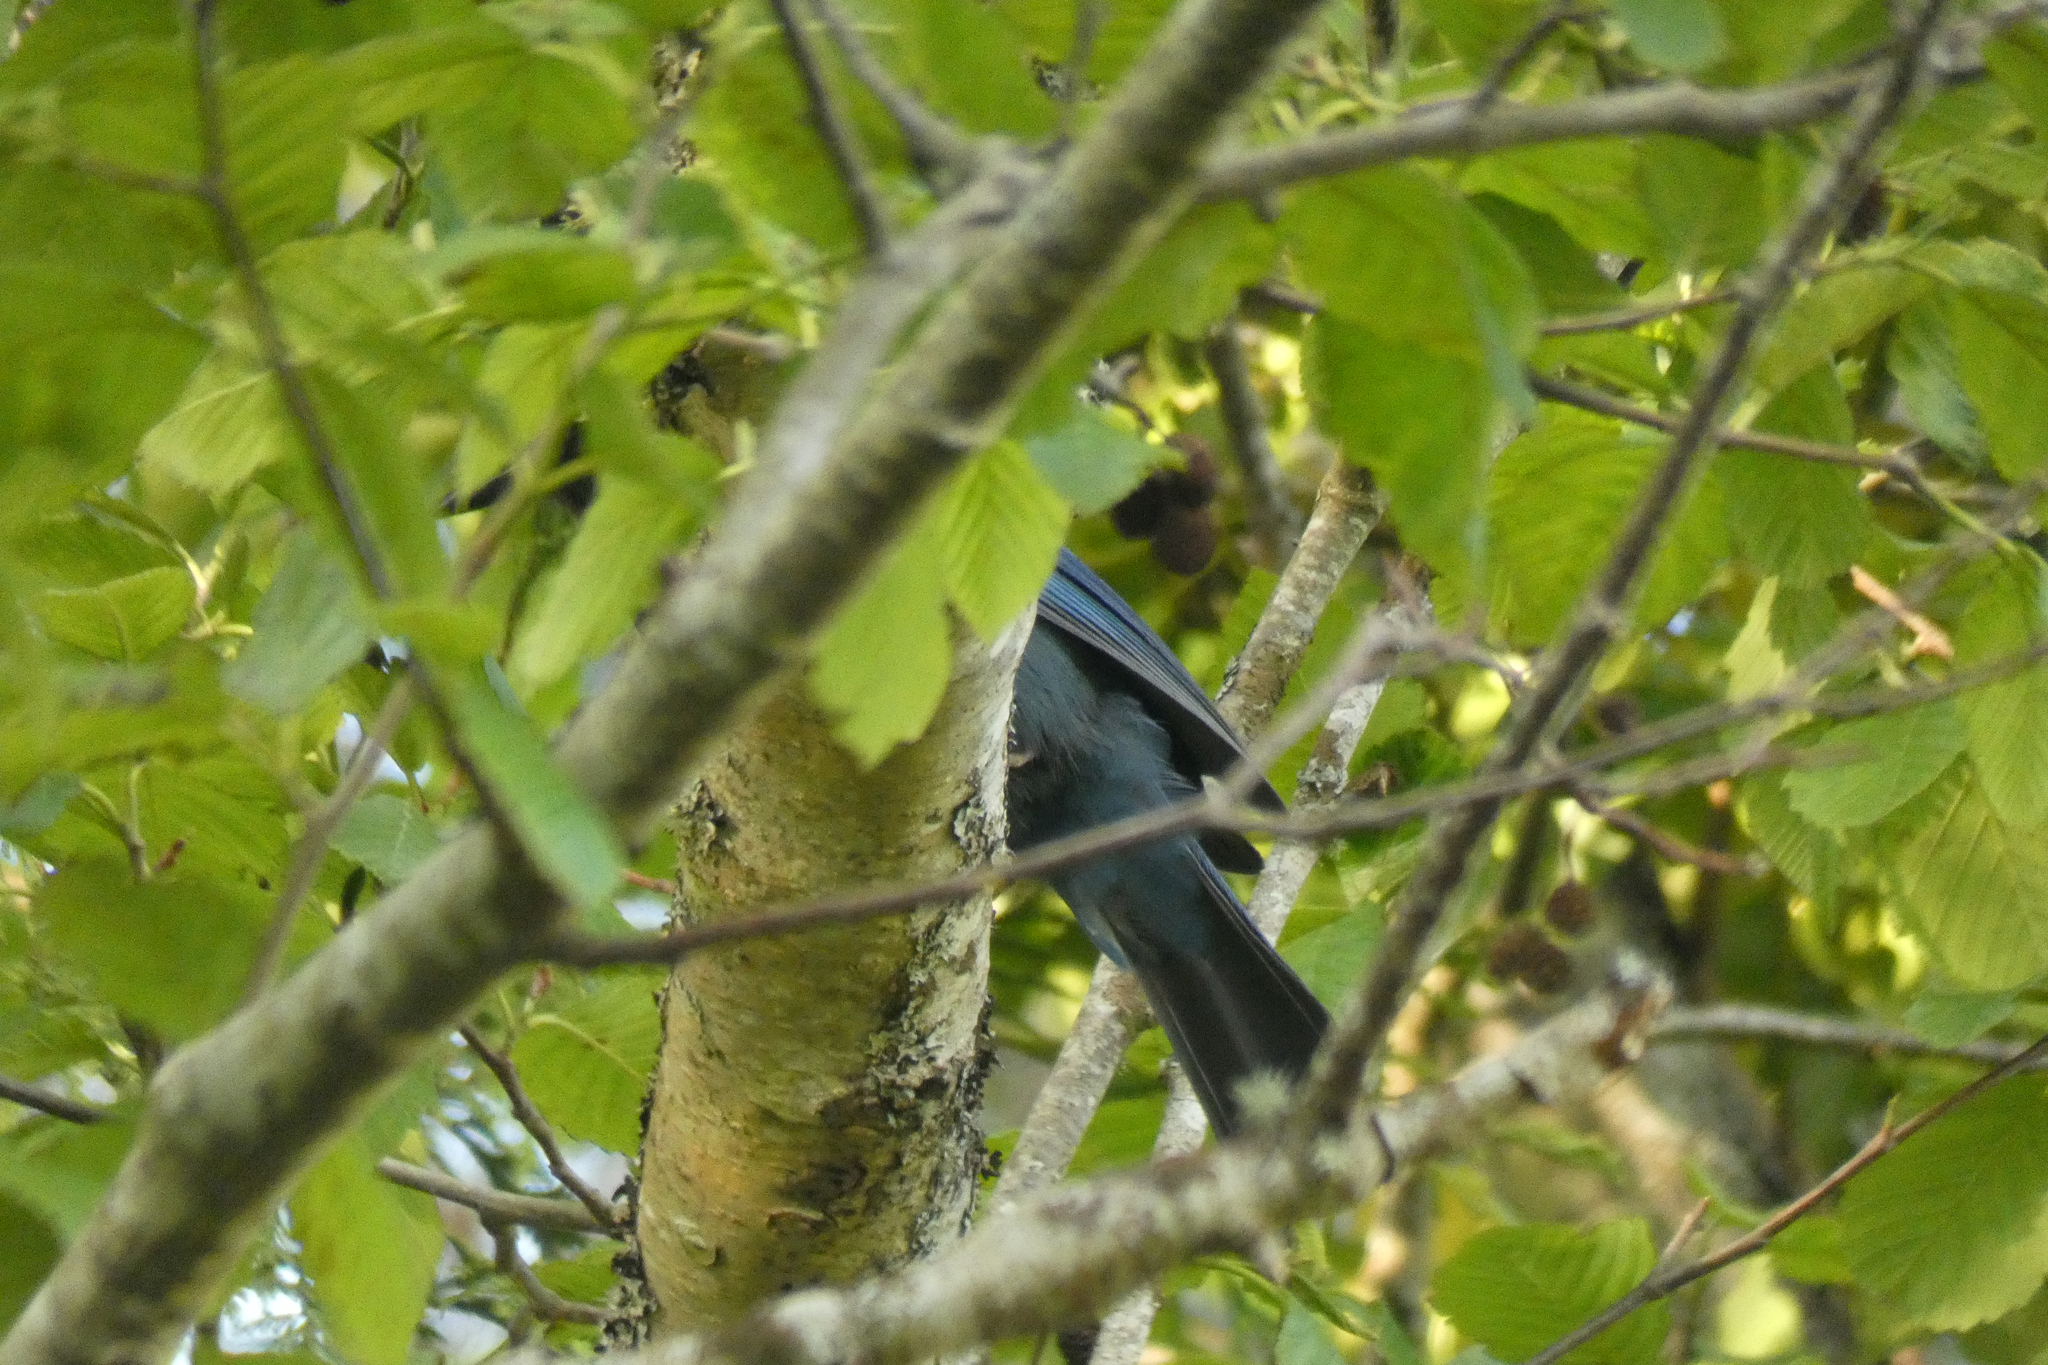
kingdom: Animalia
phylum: Chordata
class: Aves
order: Passeriformes
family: Corvidae
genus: Cyanocitta
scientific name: Cyanocitta stelleri
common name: Steller's jay
